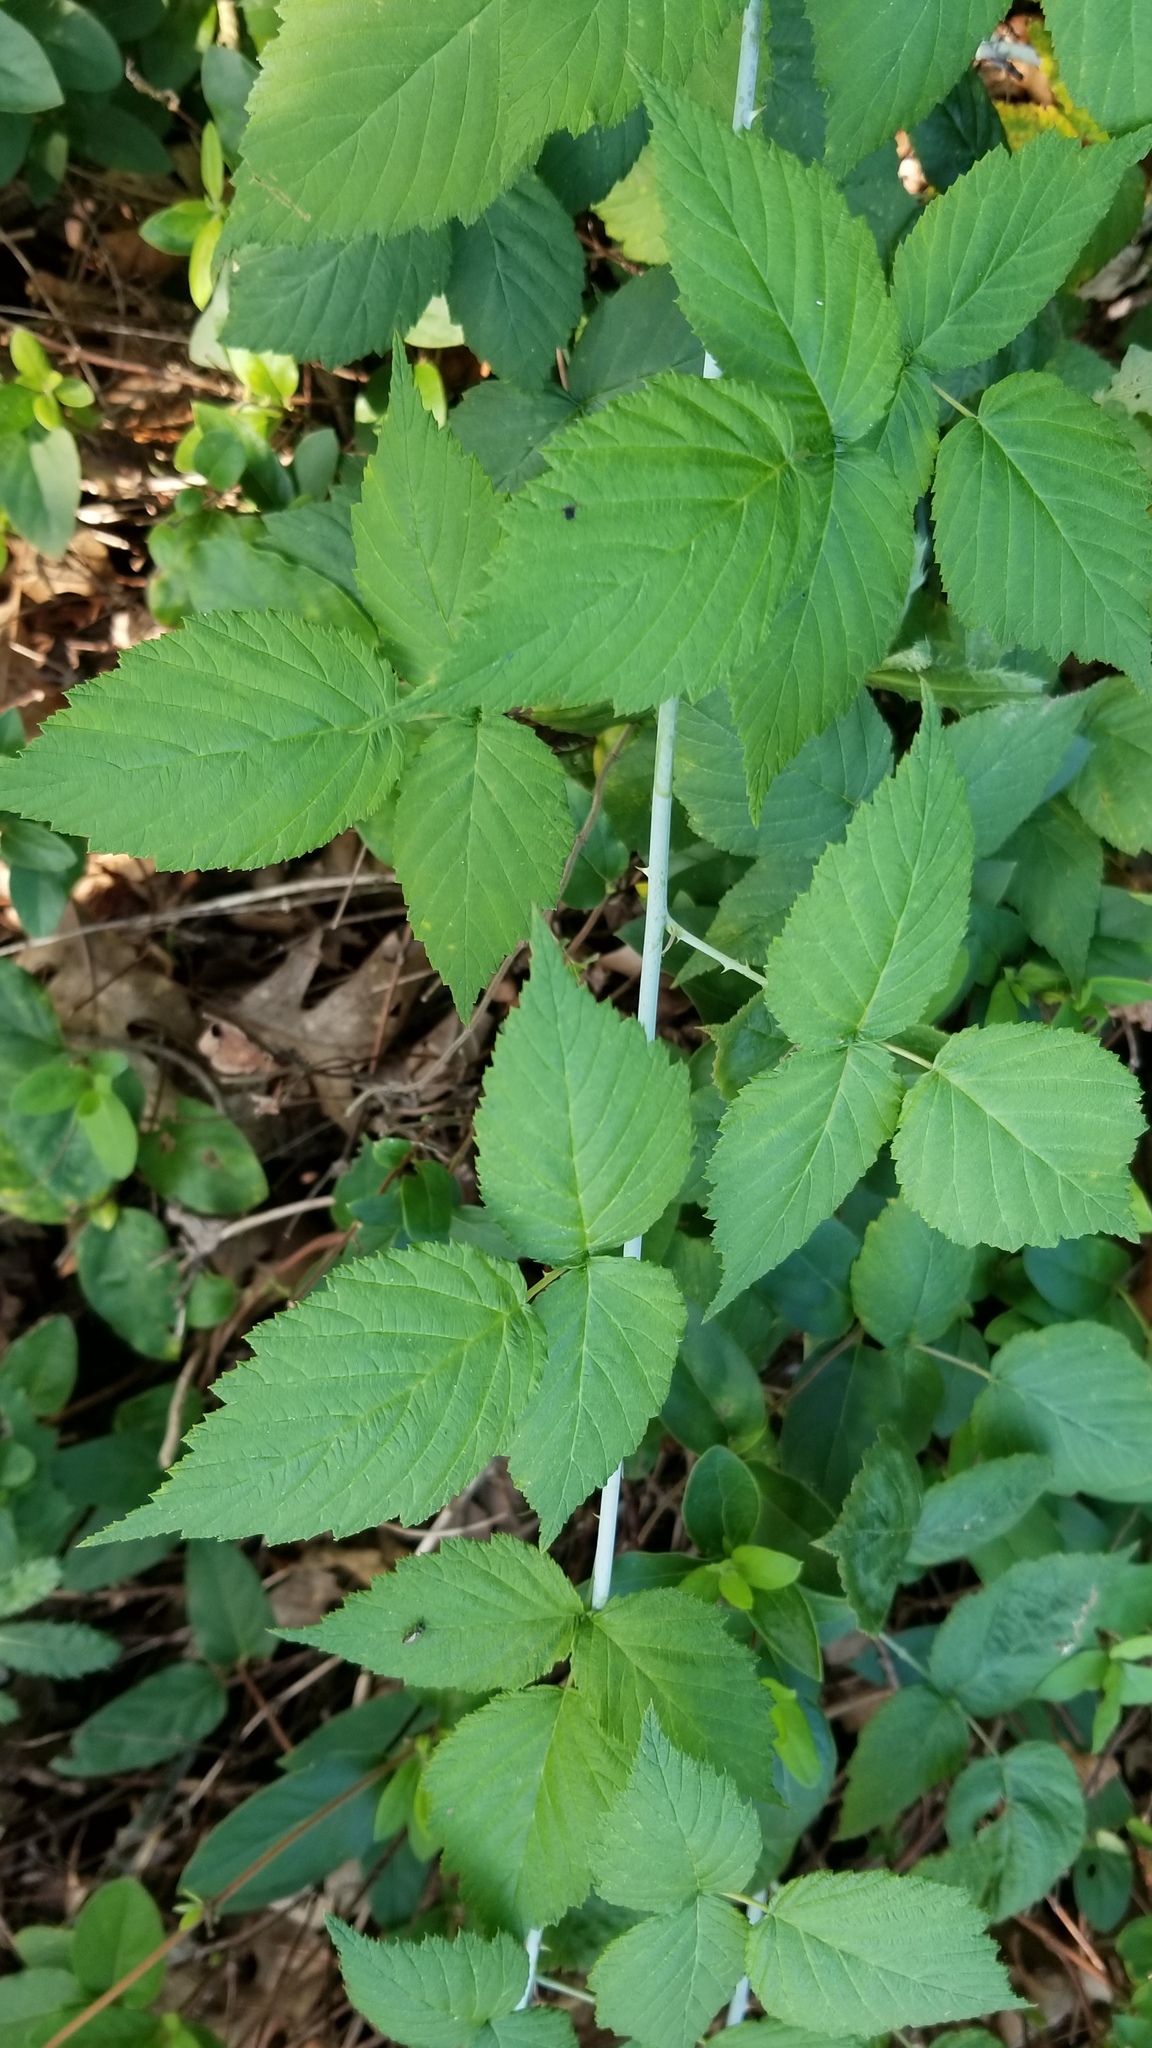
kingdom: Plantae
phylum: Tracheophyta
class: Magnoliopsida
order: Rosales
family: Rosaceae
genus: Rubus
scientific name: Rubus occidentalis
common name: Black raspberry
